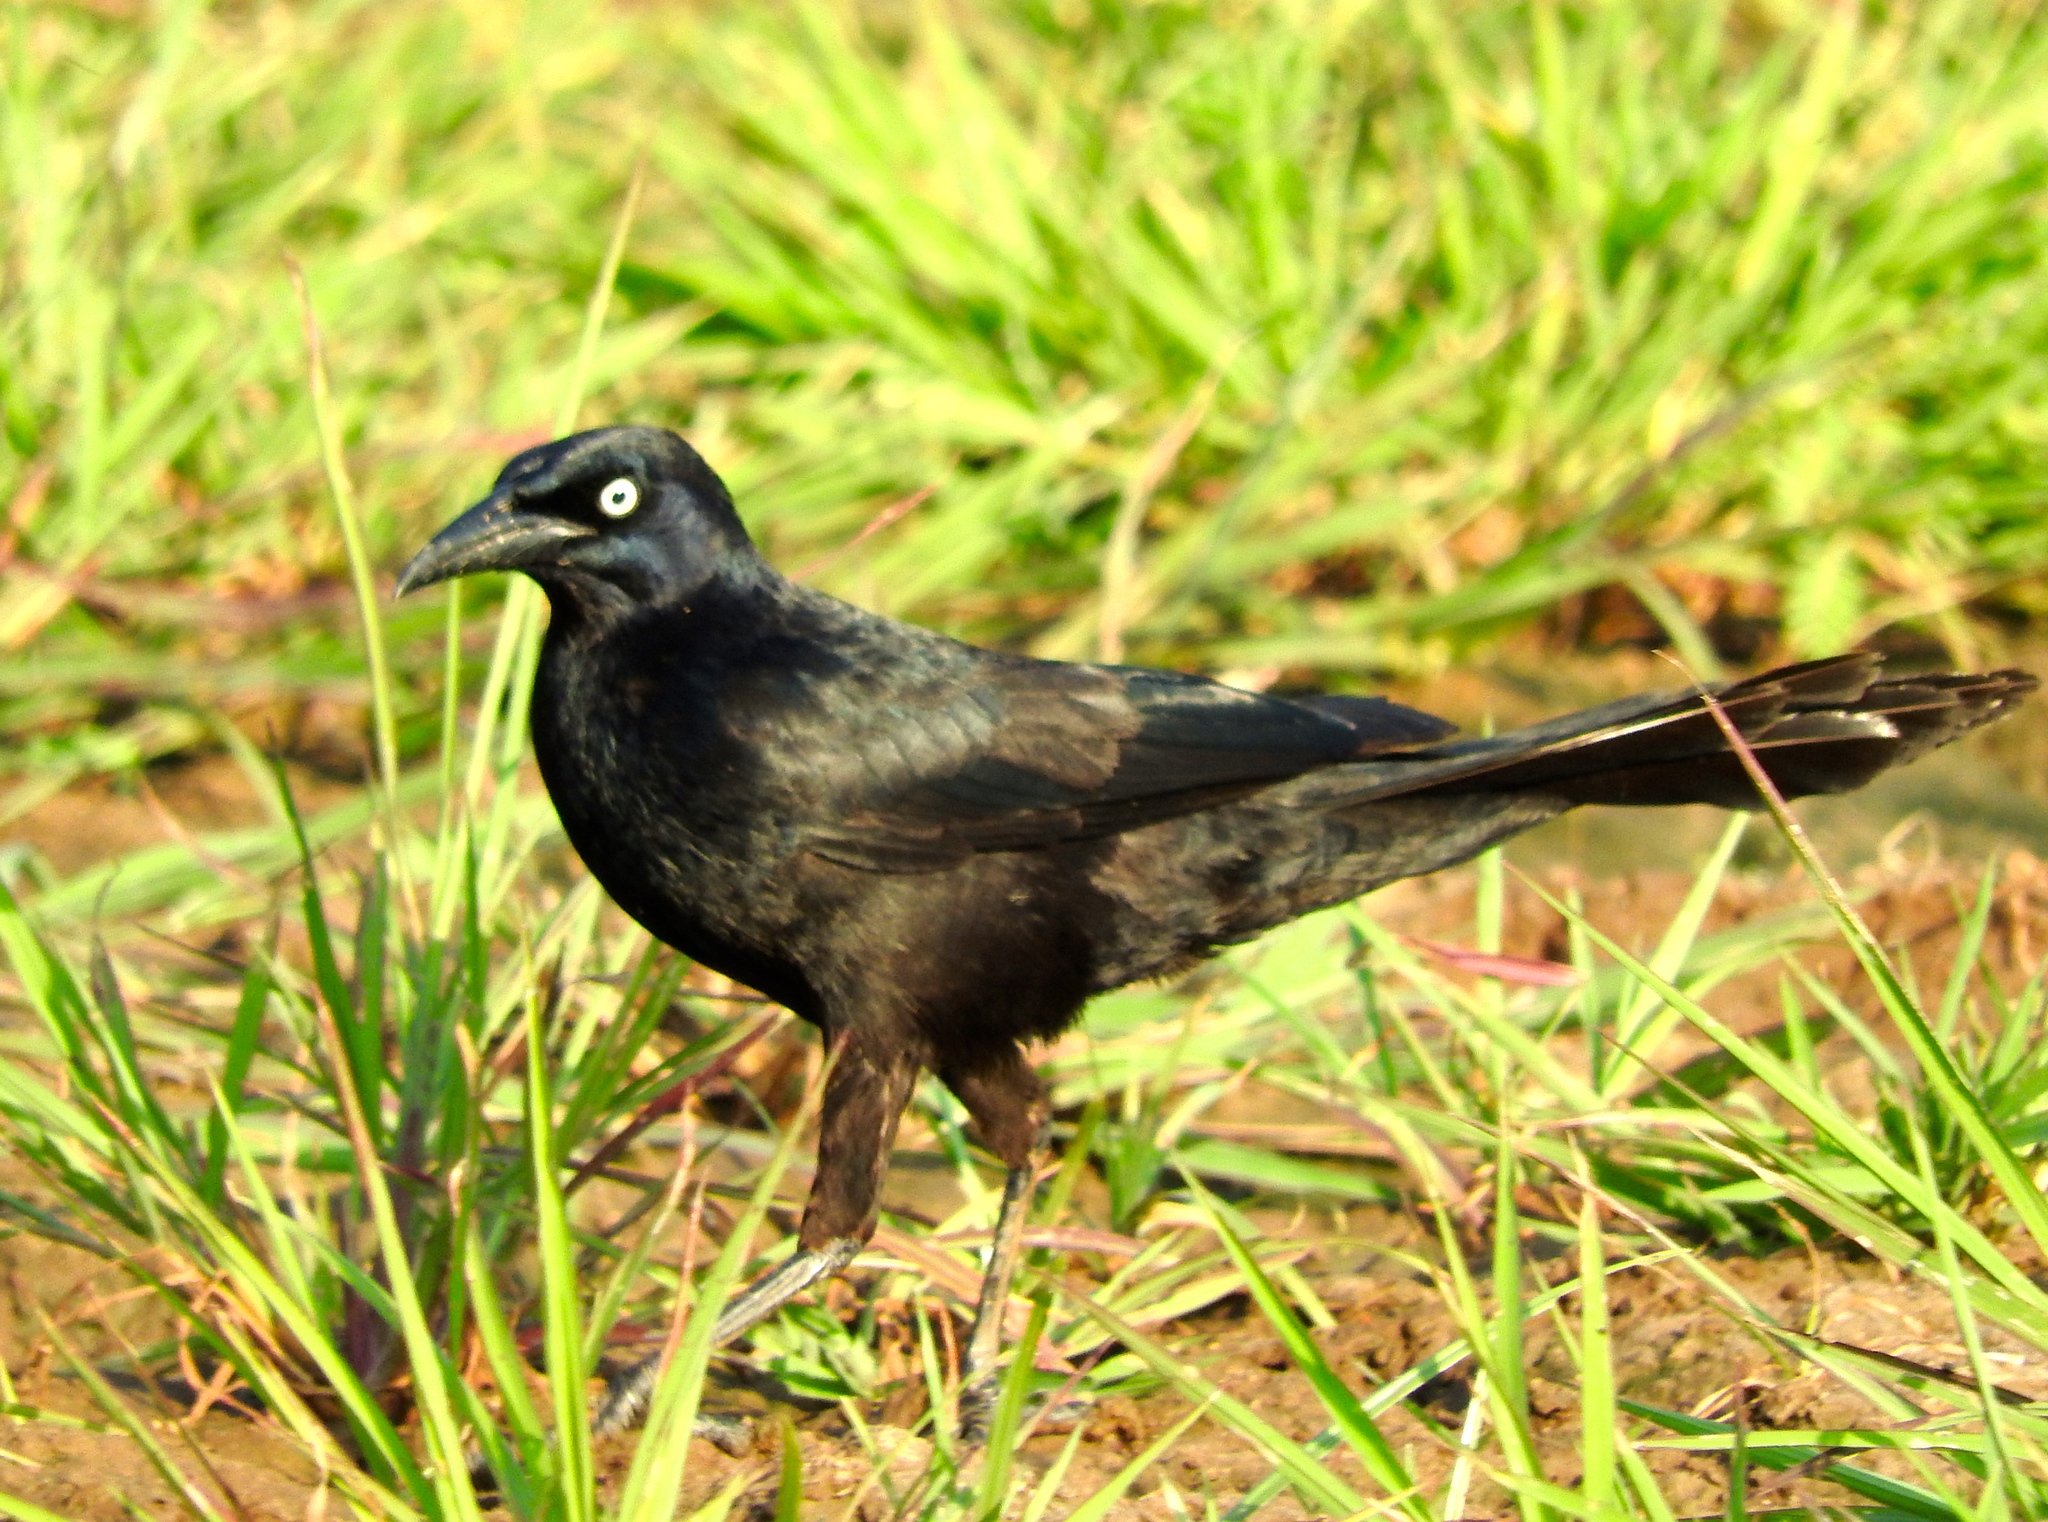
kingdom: Animalia
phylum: Chordata
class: Aves
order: Passeriformes
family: Icteridae
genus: Quiscalus
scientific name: Quiscalus mexicanus
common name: Great-tailed grackle
